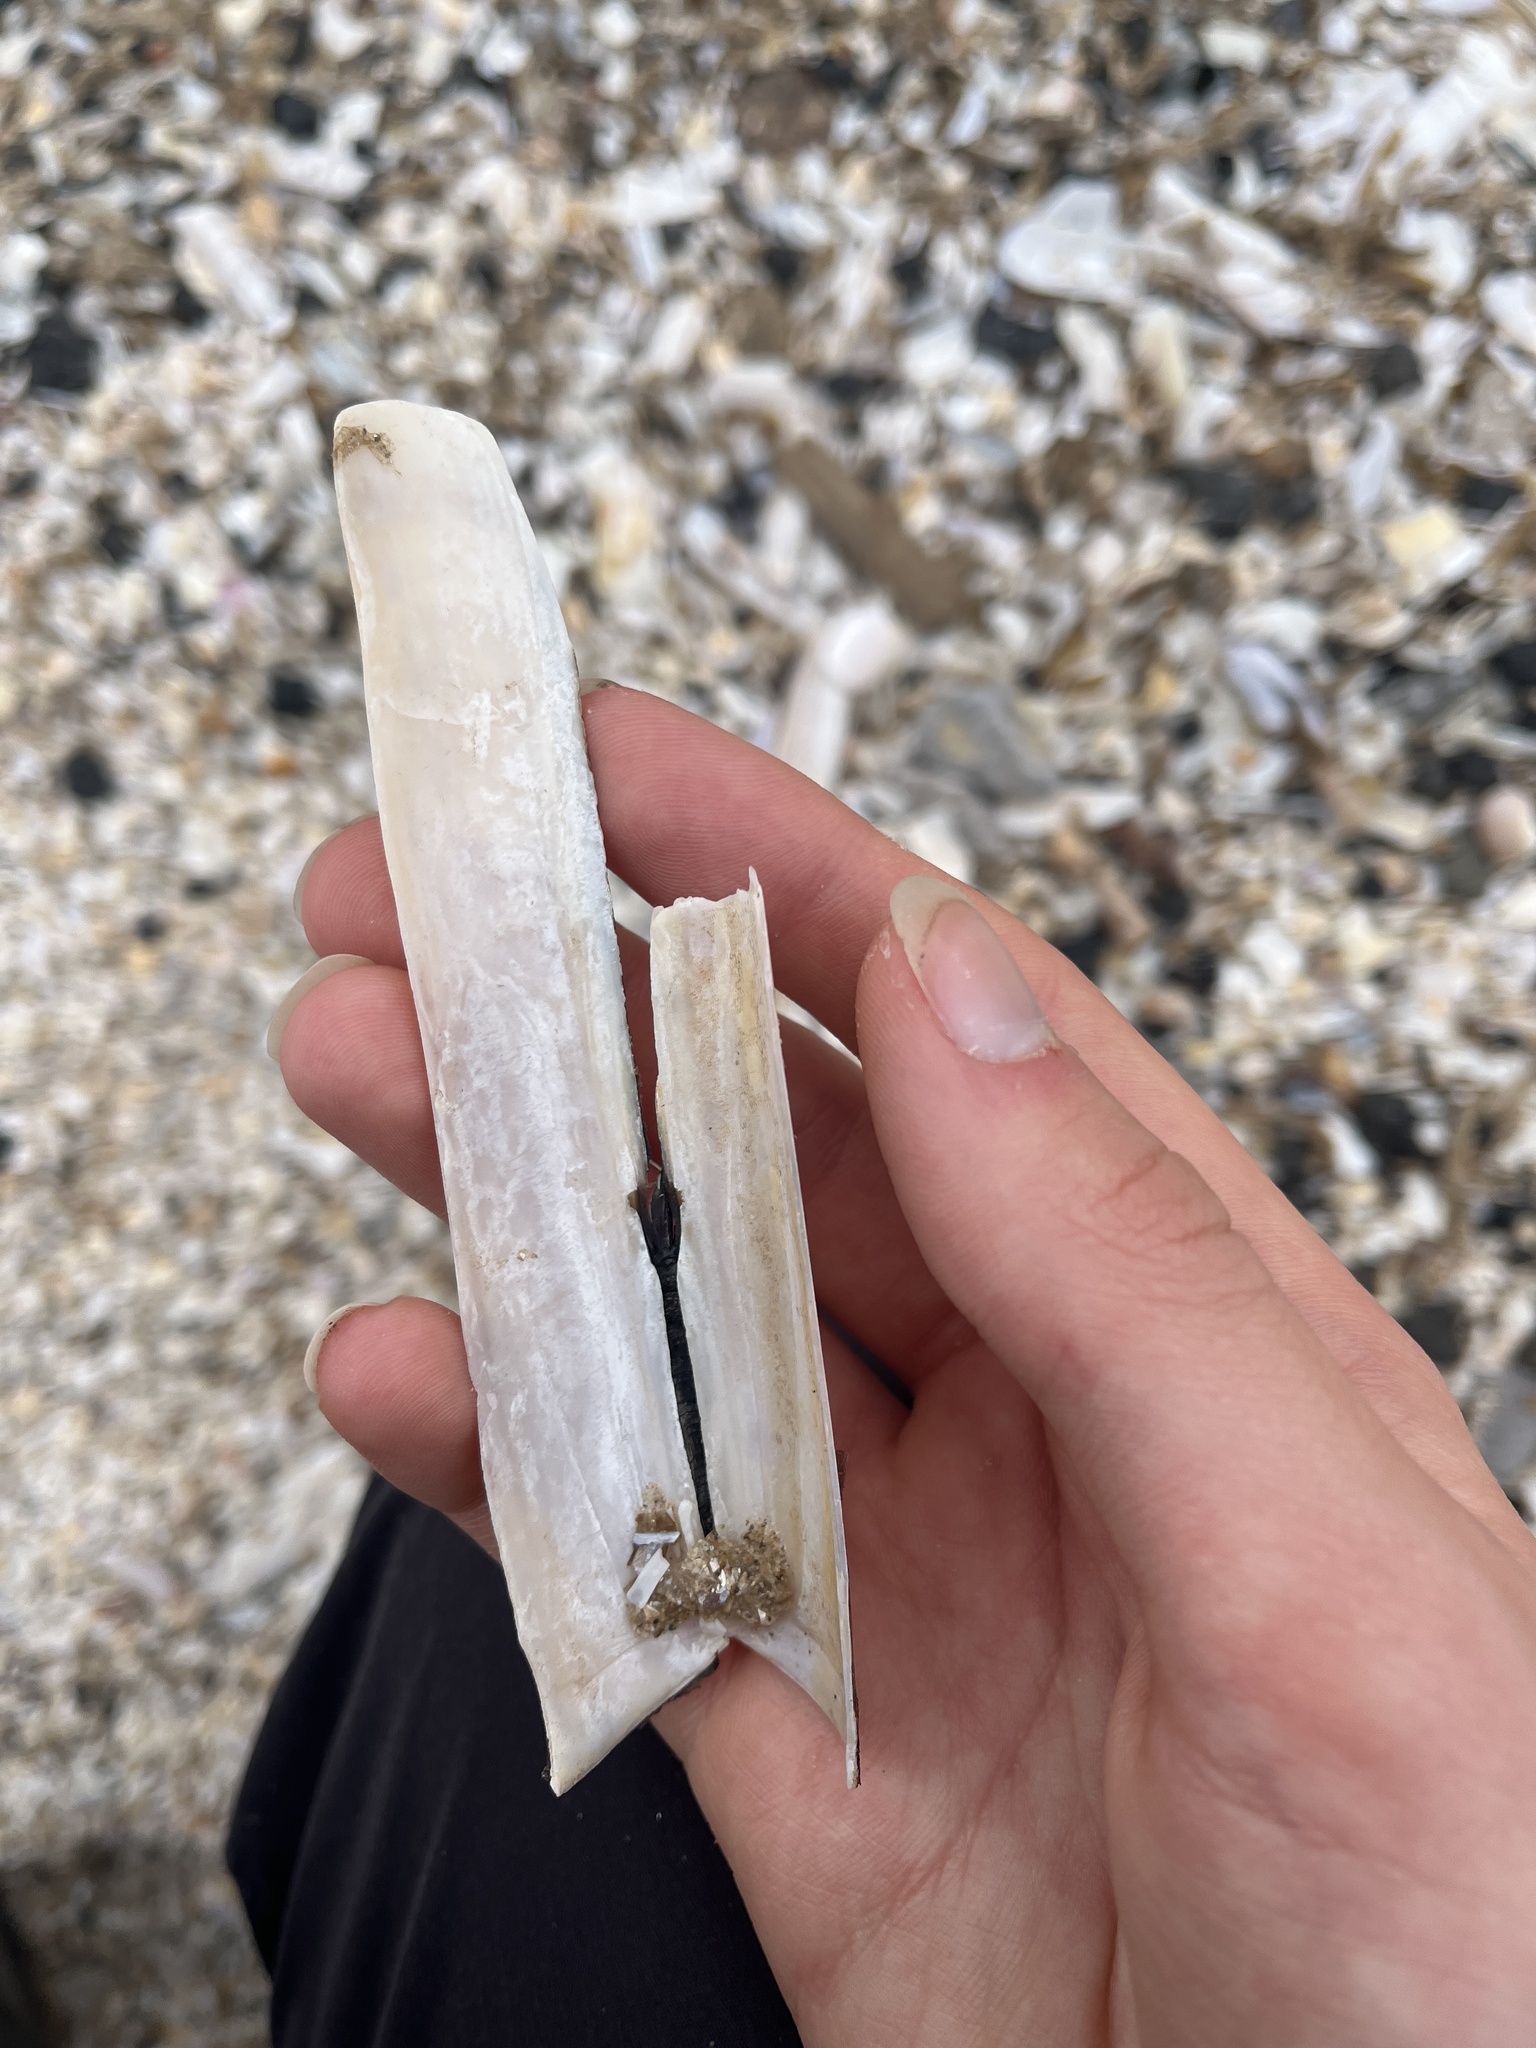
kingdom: Animalia
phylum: Mollusca
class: Bivalvia
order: Adapedonta
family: Solenidae
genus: Solen
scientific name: Solen marginatus
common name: Grooved razor shell
